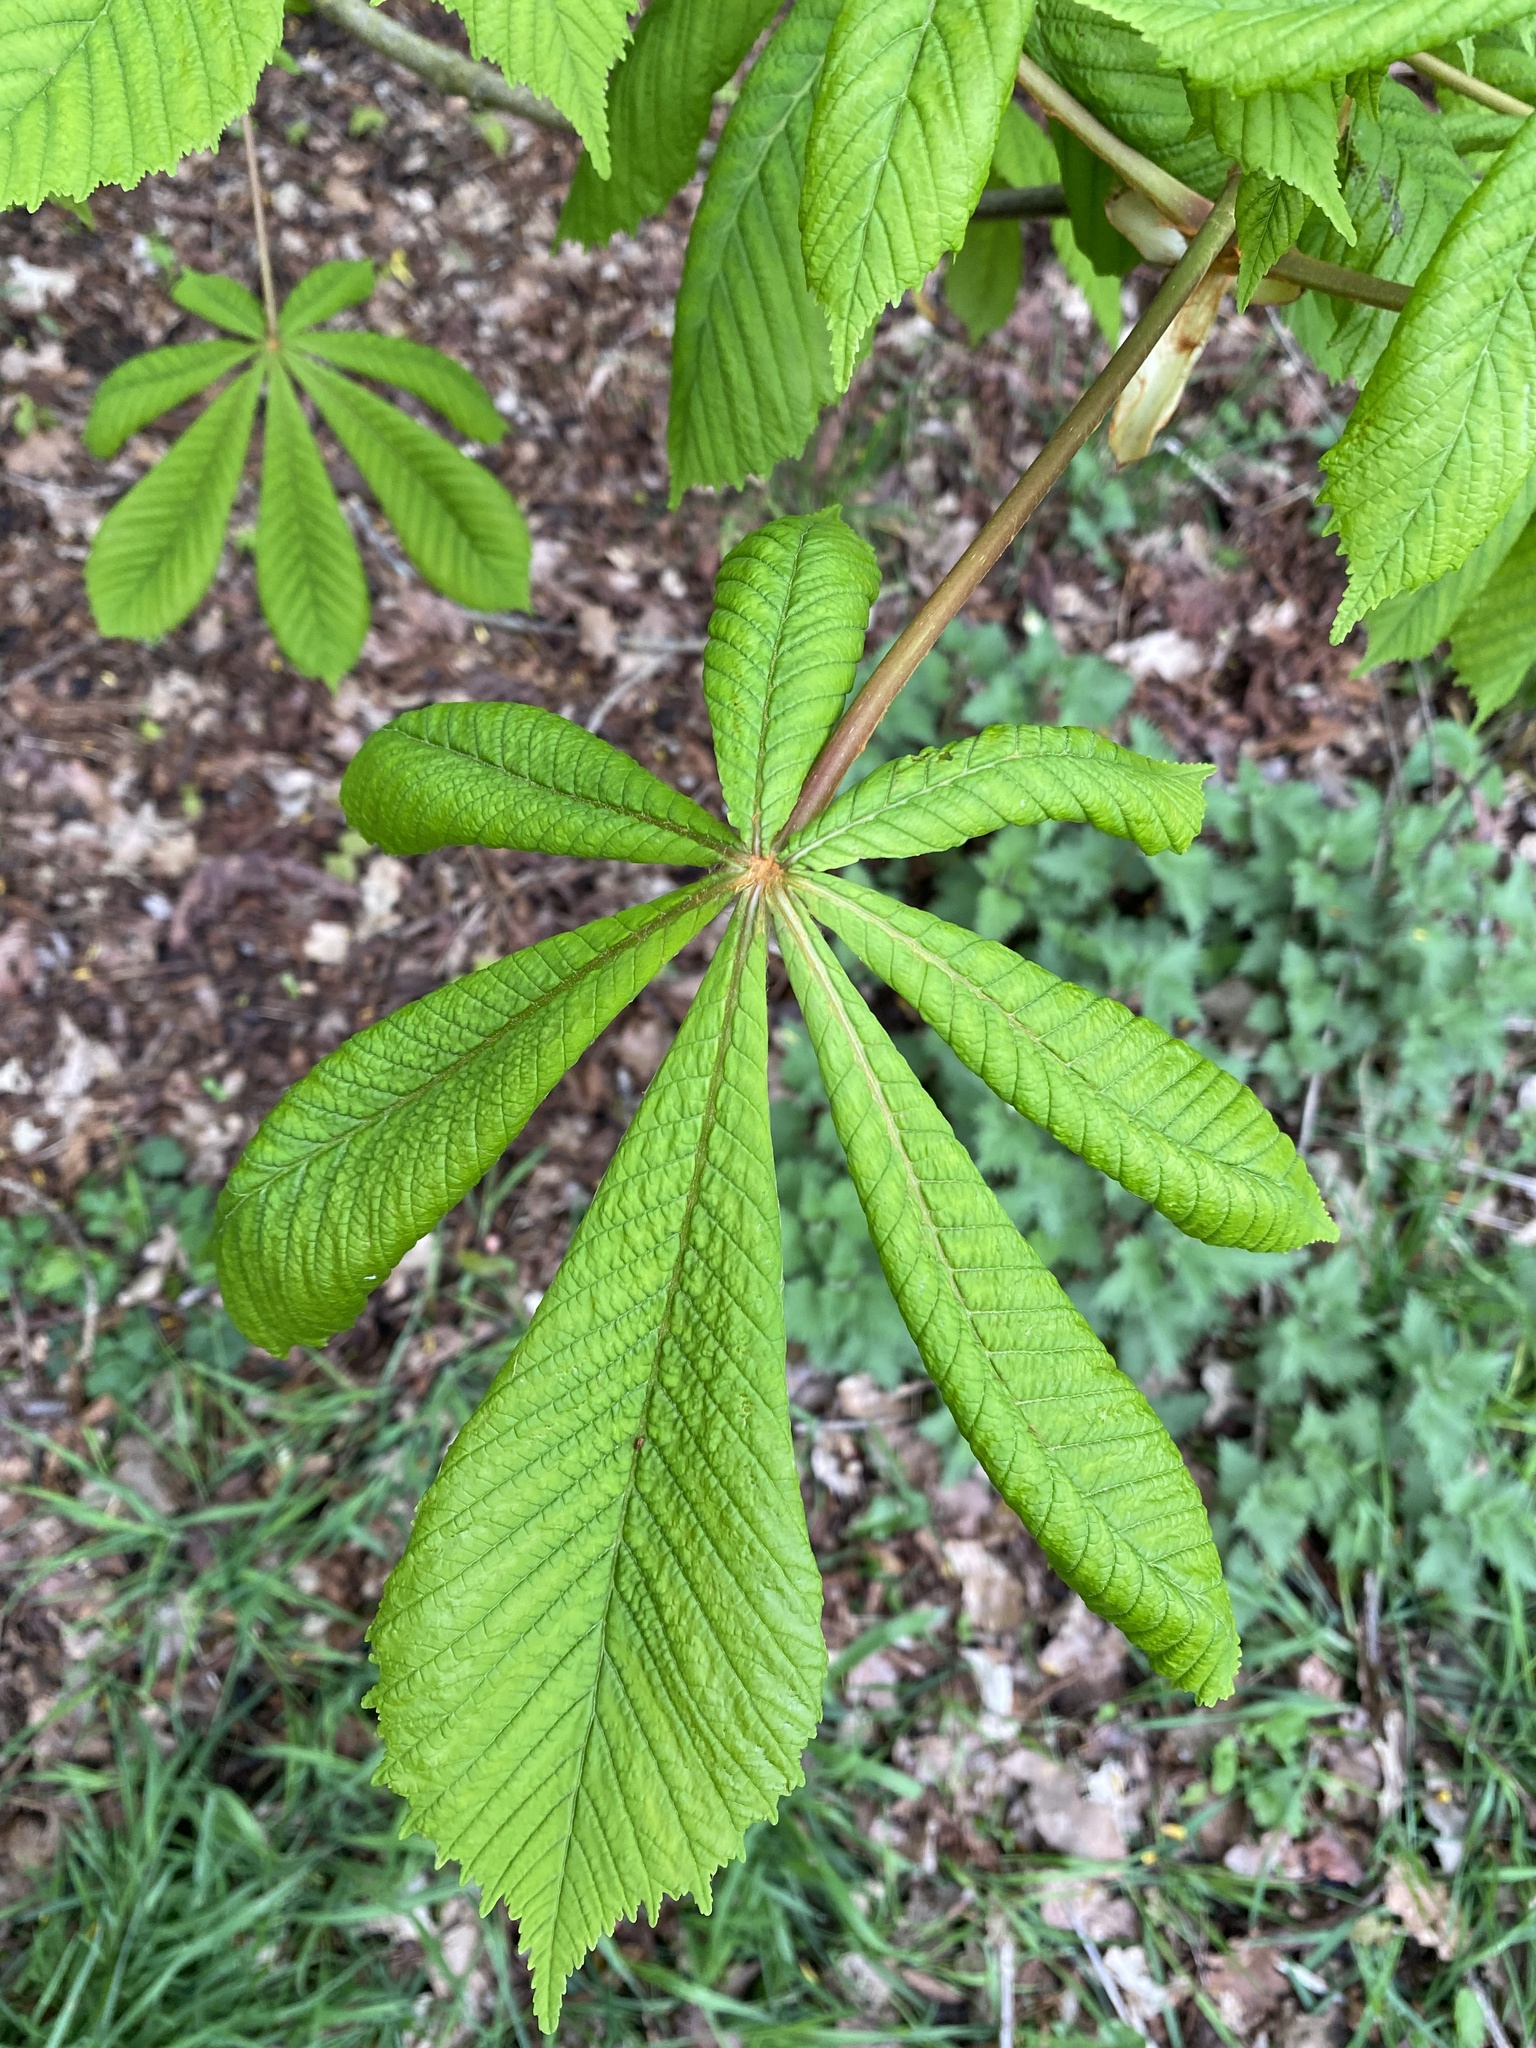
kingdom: Plantae
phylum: Tracheophyta
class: Magnoliopsida
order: Sapindales
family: Sapindaceae
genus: Aesculus
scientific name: Aesculus hippocastanum
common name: Horse-chestnut
